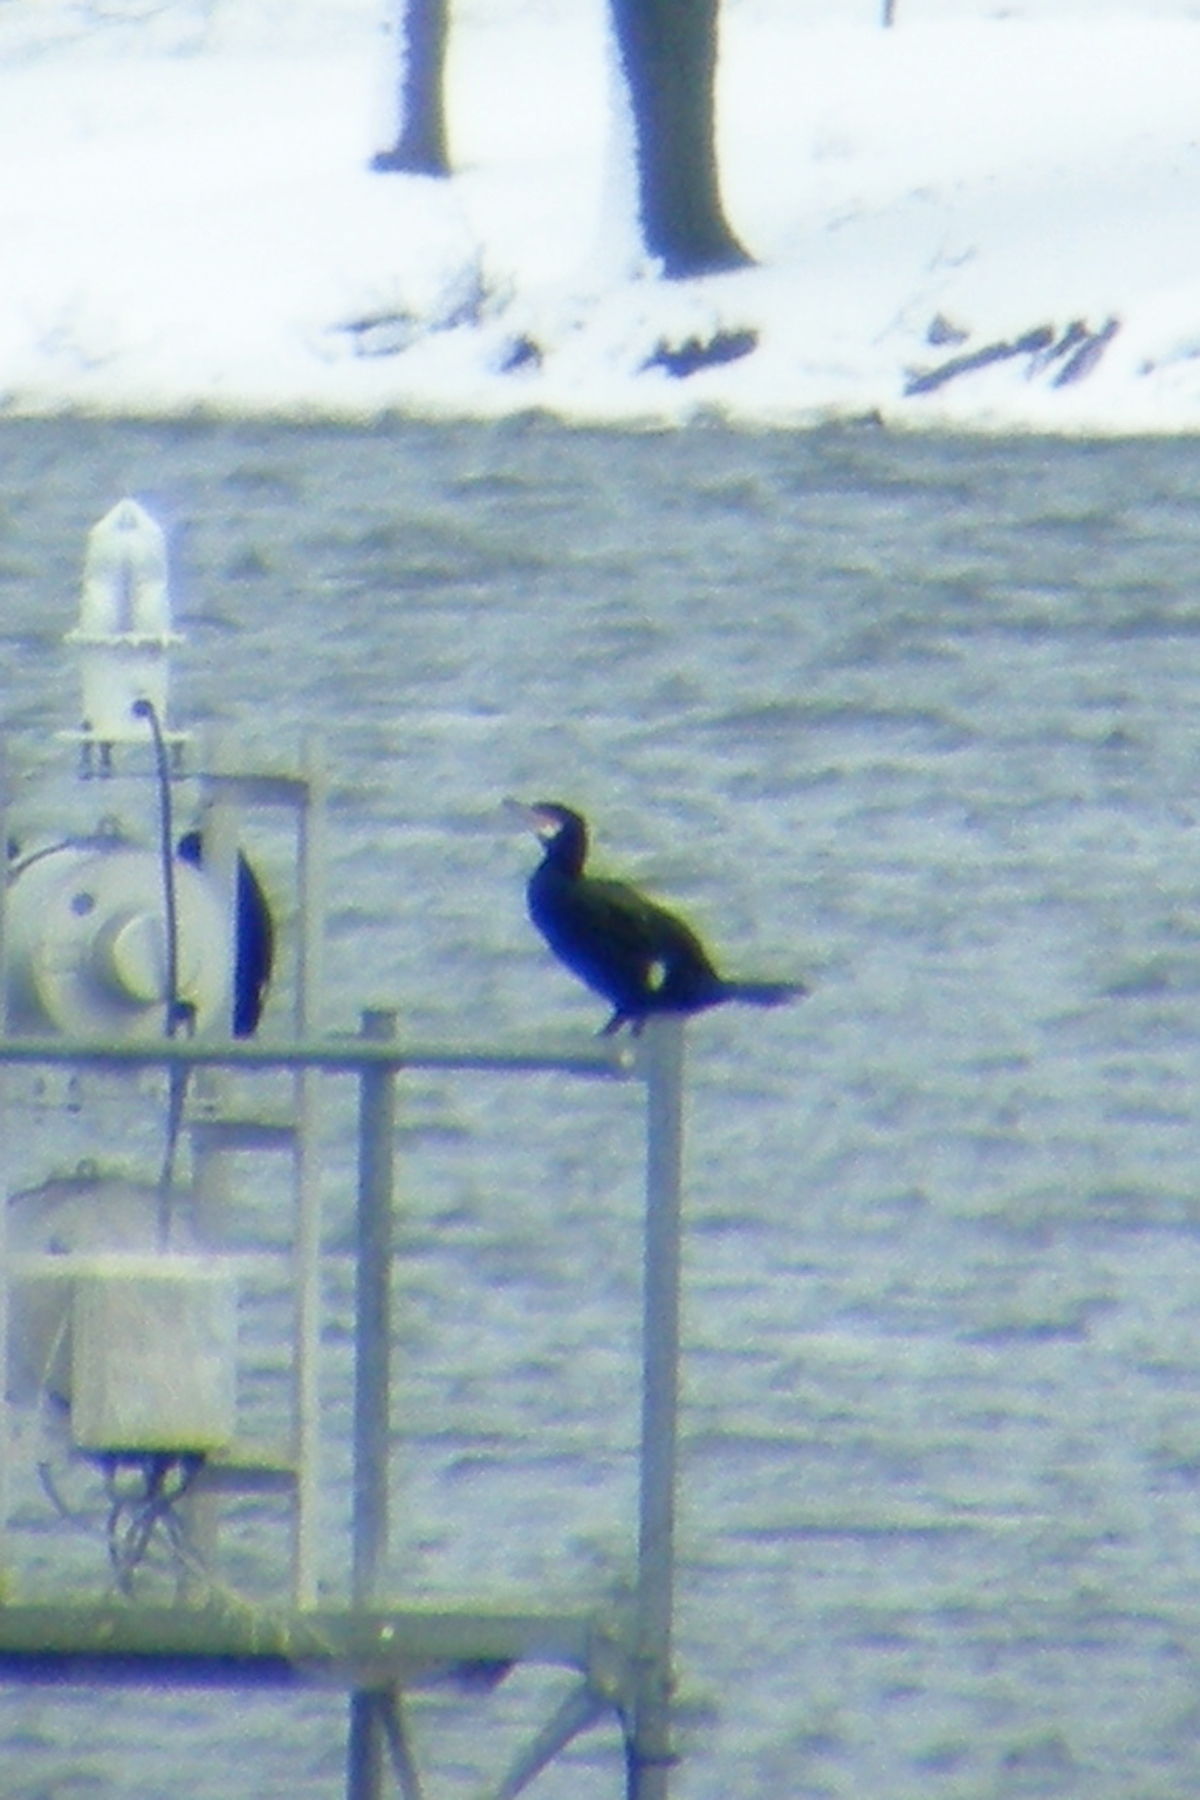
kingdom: Animalia
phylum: Chordata
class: Aves
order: Suliformes
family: Phalacrocoracidae
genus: Phalacrocorax
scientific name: Phalacrocorax carbo
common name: Great cormorant
